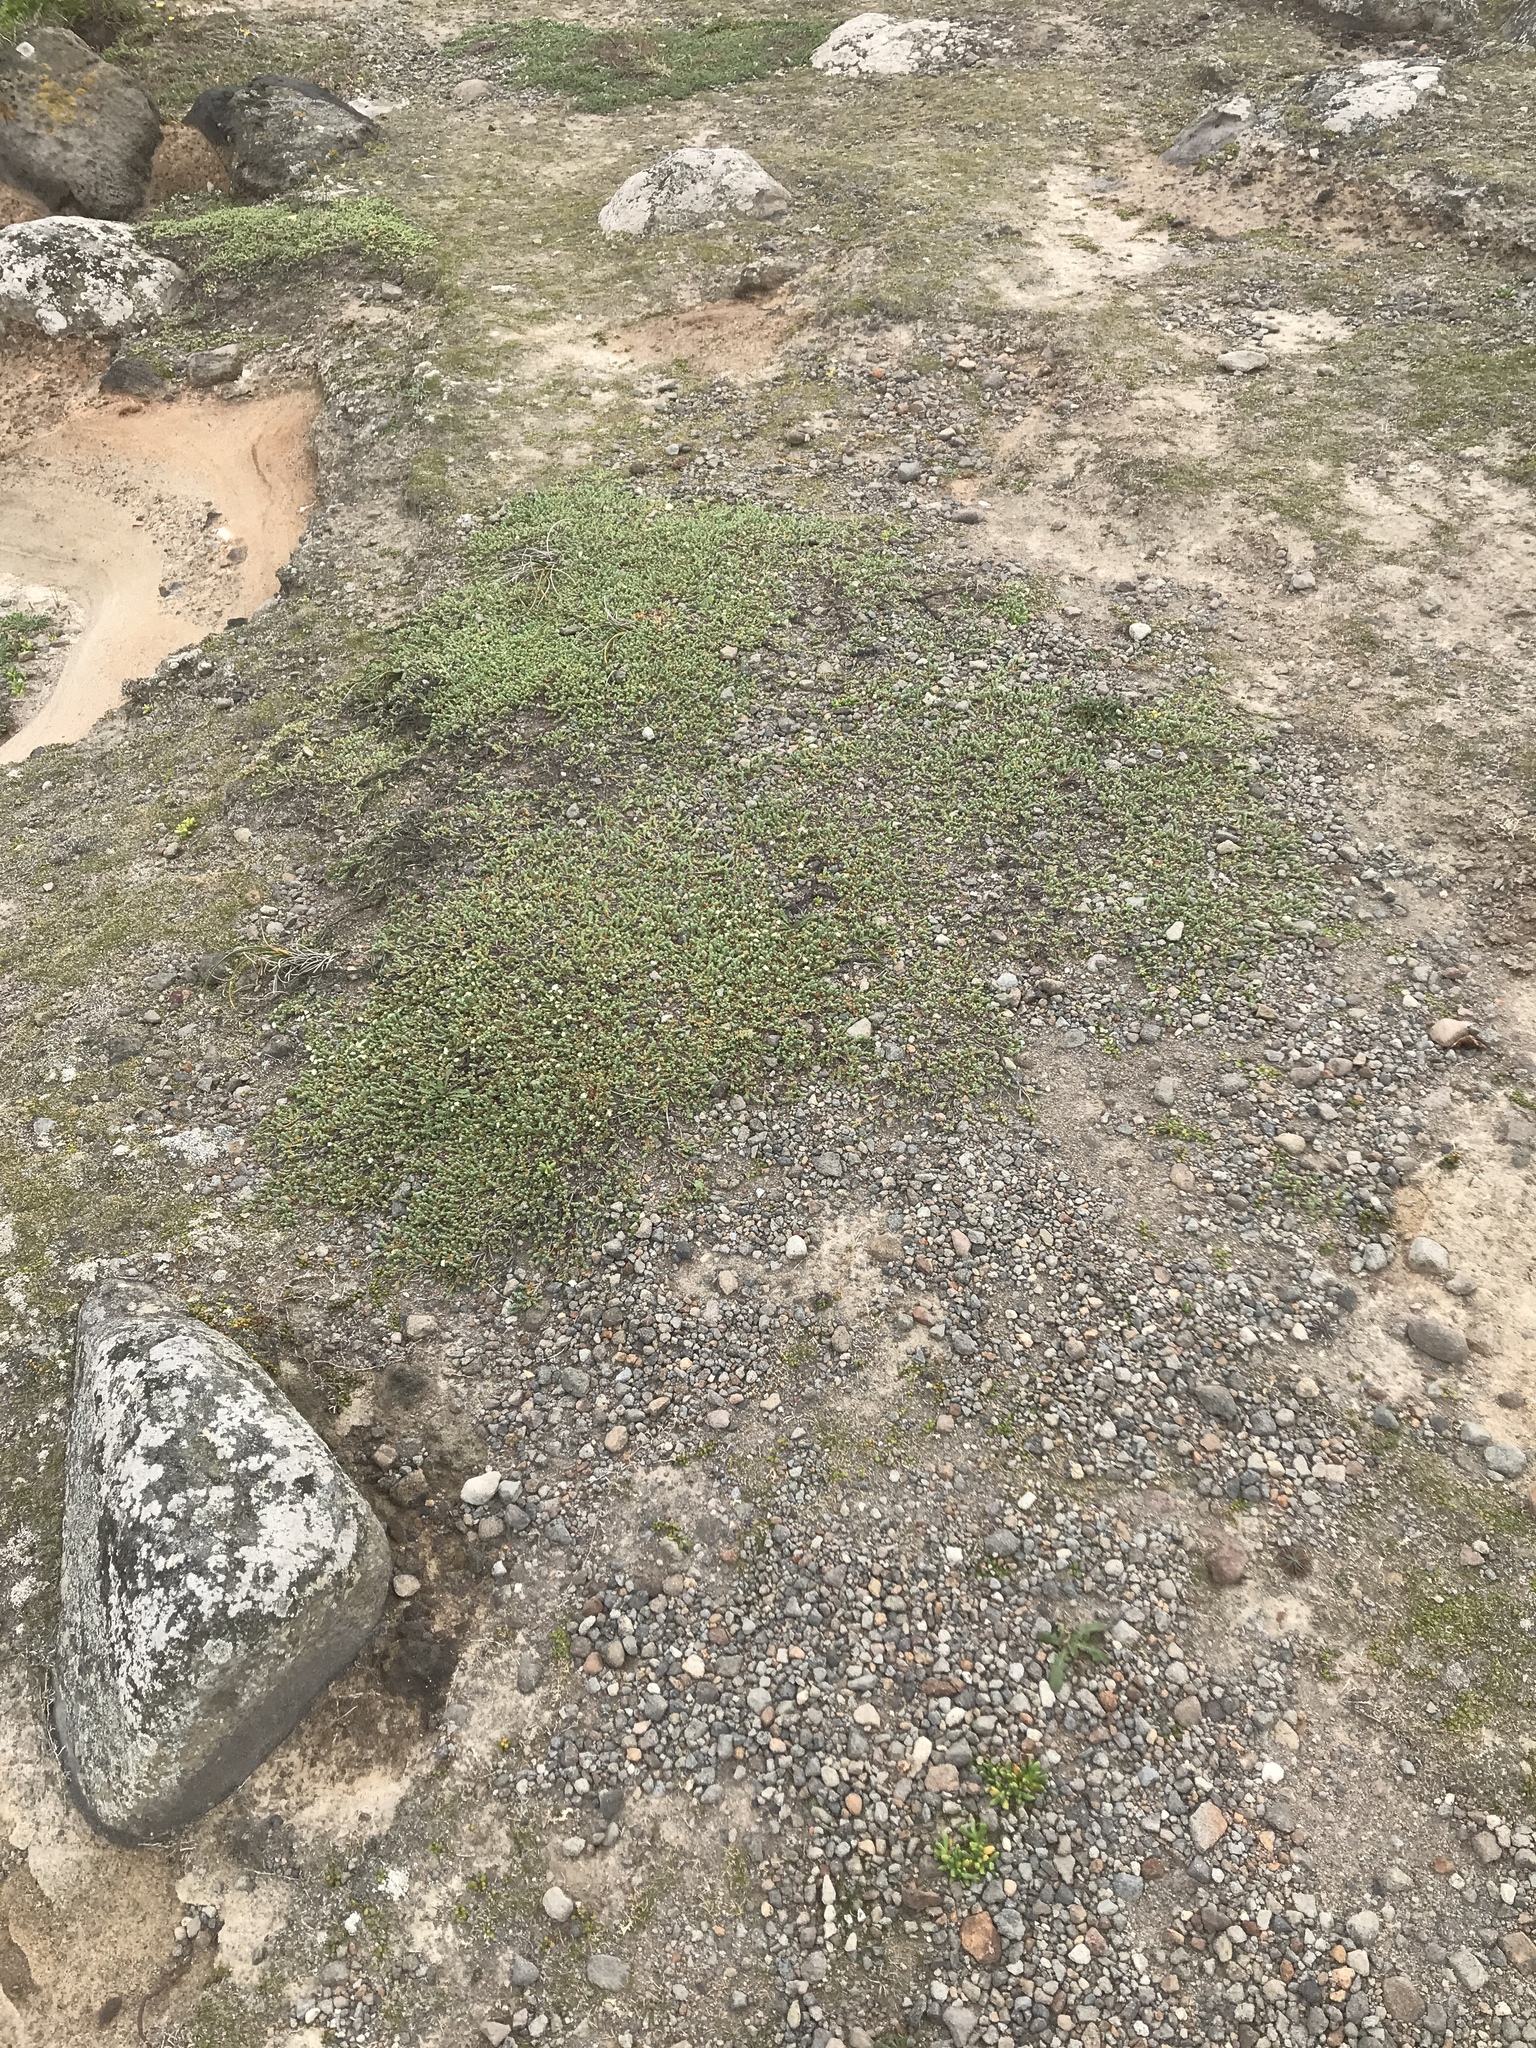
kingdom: Plantae
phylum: Tracheophyta
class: Magnoliopsida
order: Malvales
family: Thymelaeaceae
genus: Pimelea
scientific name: Pimelea carnosa
